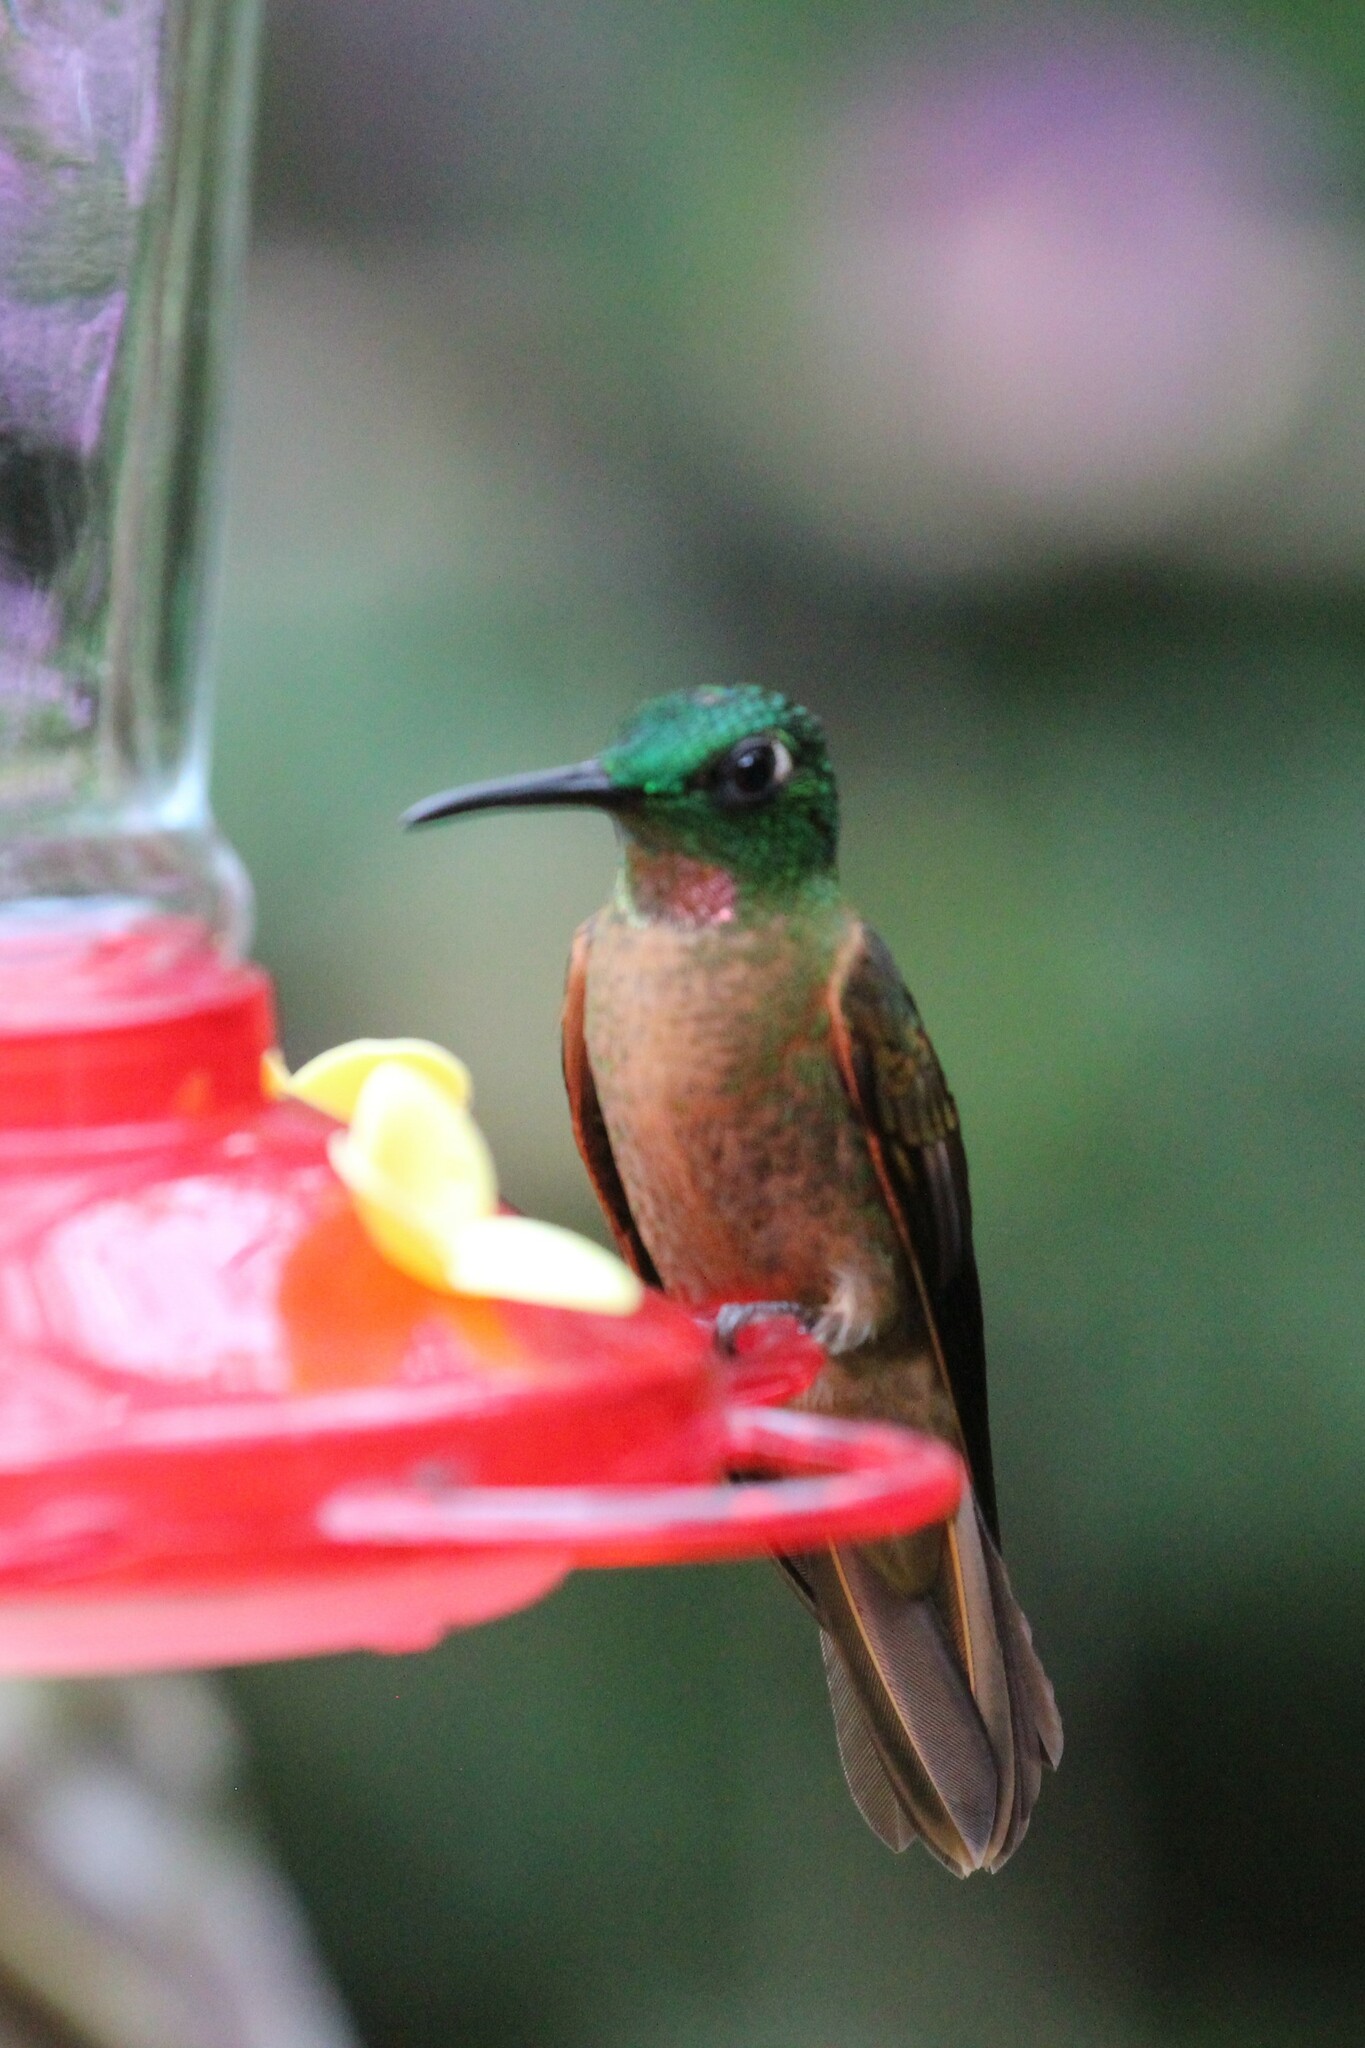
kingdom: Animalia
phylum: Chordata
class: Aves
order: Apodiformes
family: Trochilidae
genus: Heliodoxa
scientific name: Heliodoxa rubinoides
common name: Fawn-breasted brilliant
